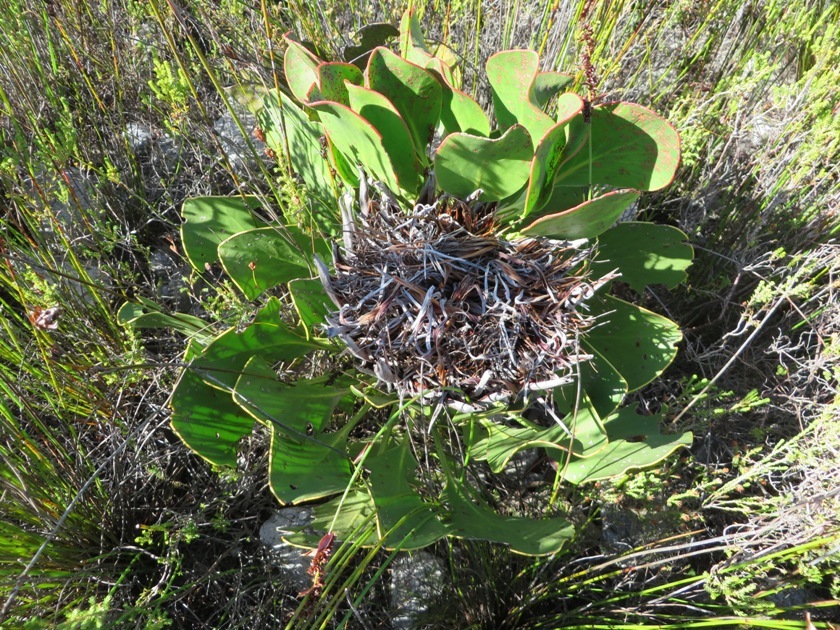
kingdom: Plantae
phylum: Tracheophyta
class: Magnoliopsida
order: Proteales
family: Proteaceae
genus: Protea
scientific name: Protea cynaroides
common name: King protea
